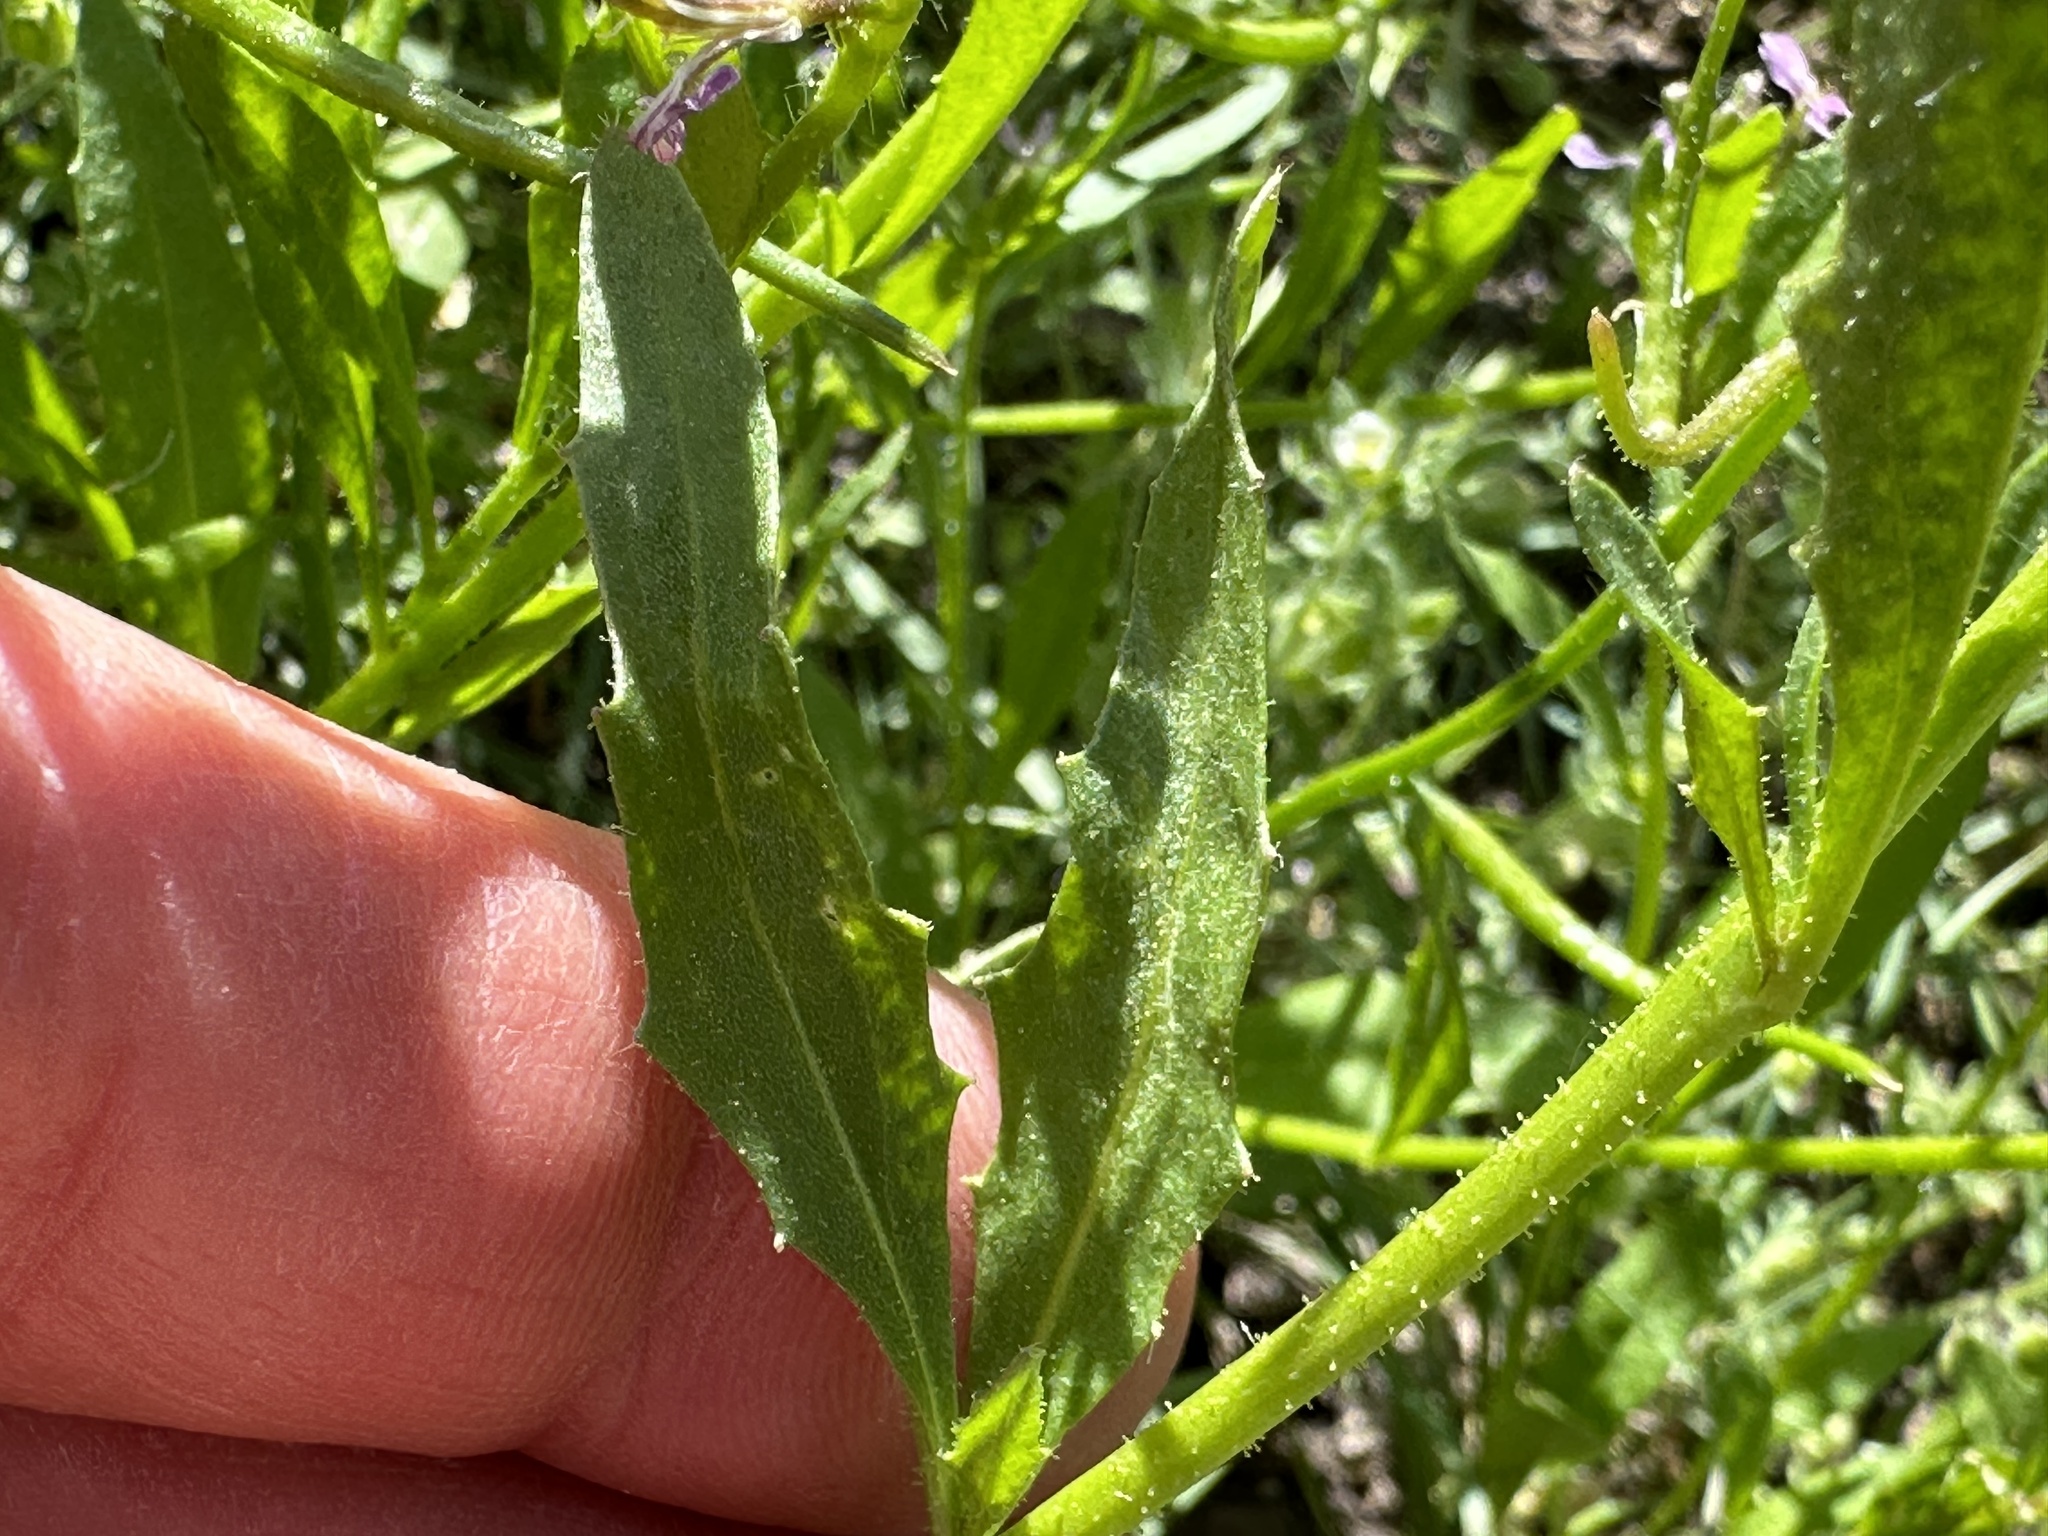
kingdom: Plantae
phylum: Tracheophyta
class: Magnoliopsida
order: Brassicales
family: Brassicaceae
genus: Chorispora
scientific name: Chorispora tenella
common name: Crossflower
